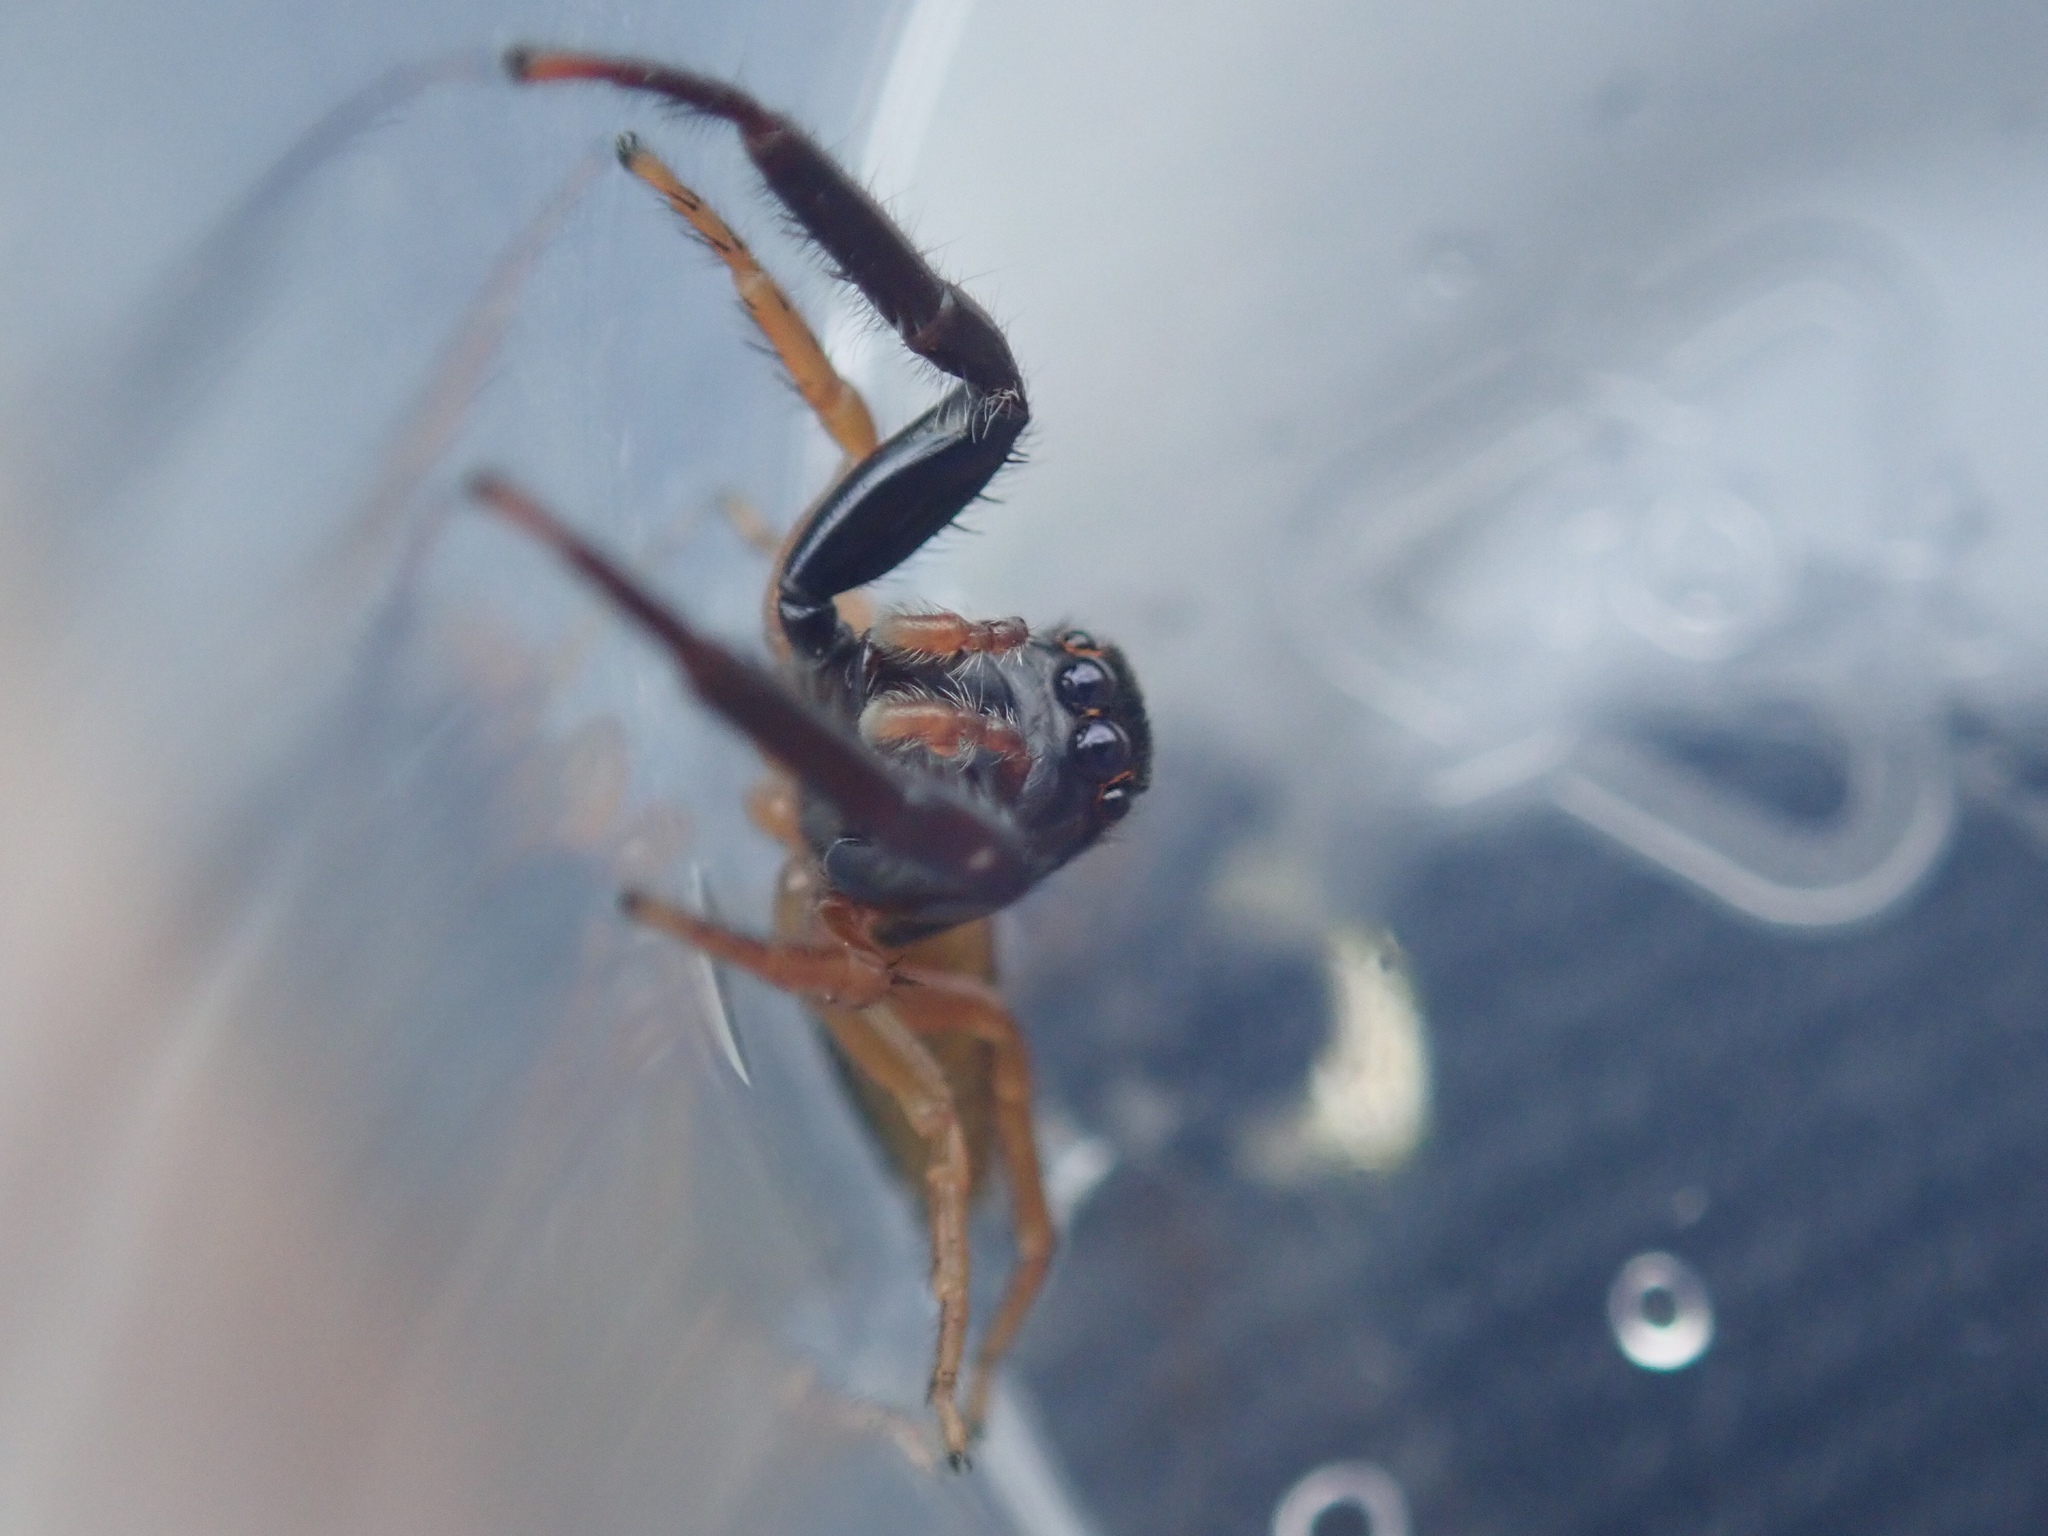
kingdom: Animalia
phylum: Arthropoda
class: Arachnida
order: Araneae
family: Salticidae
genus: Trite
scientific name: Trite planiceps
